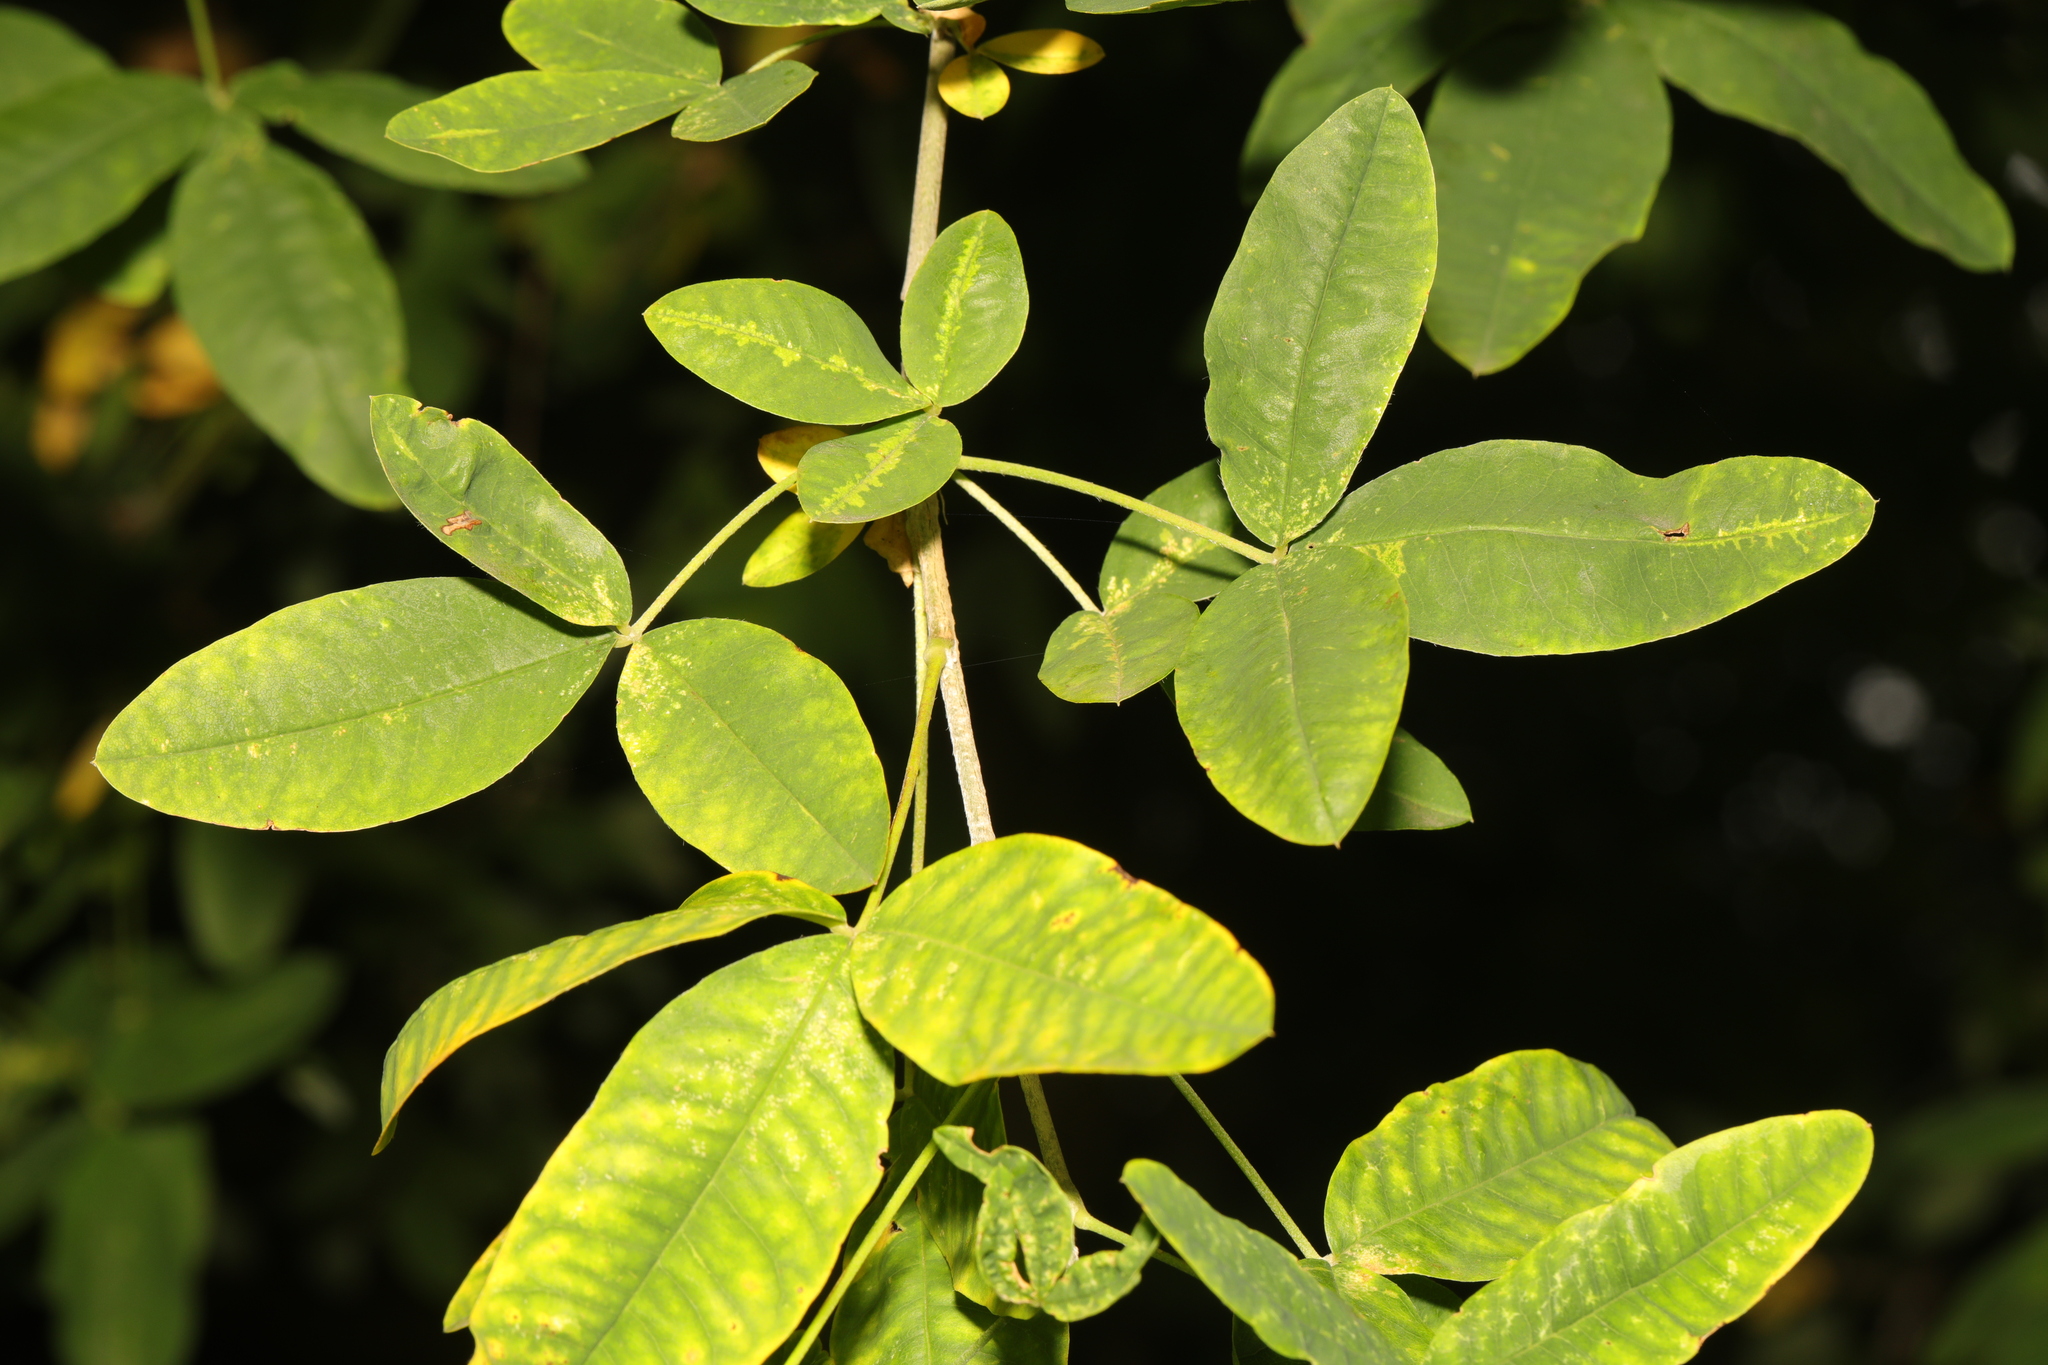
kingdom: Plantae
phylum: Tracheophyta
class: Magnoliopsida
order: Fabales
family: Fabaceae
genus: Laburnum
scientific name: Laburnum anagyroides
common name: Laburnum
